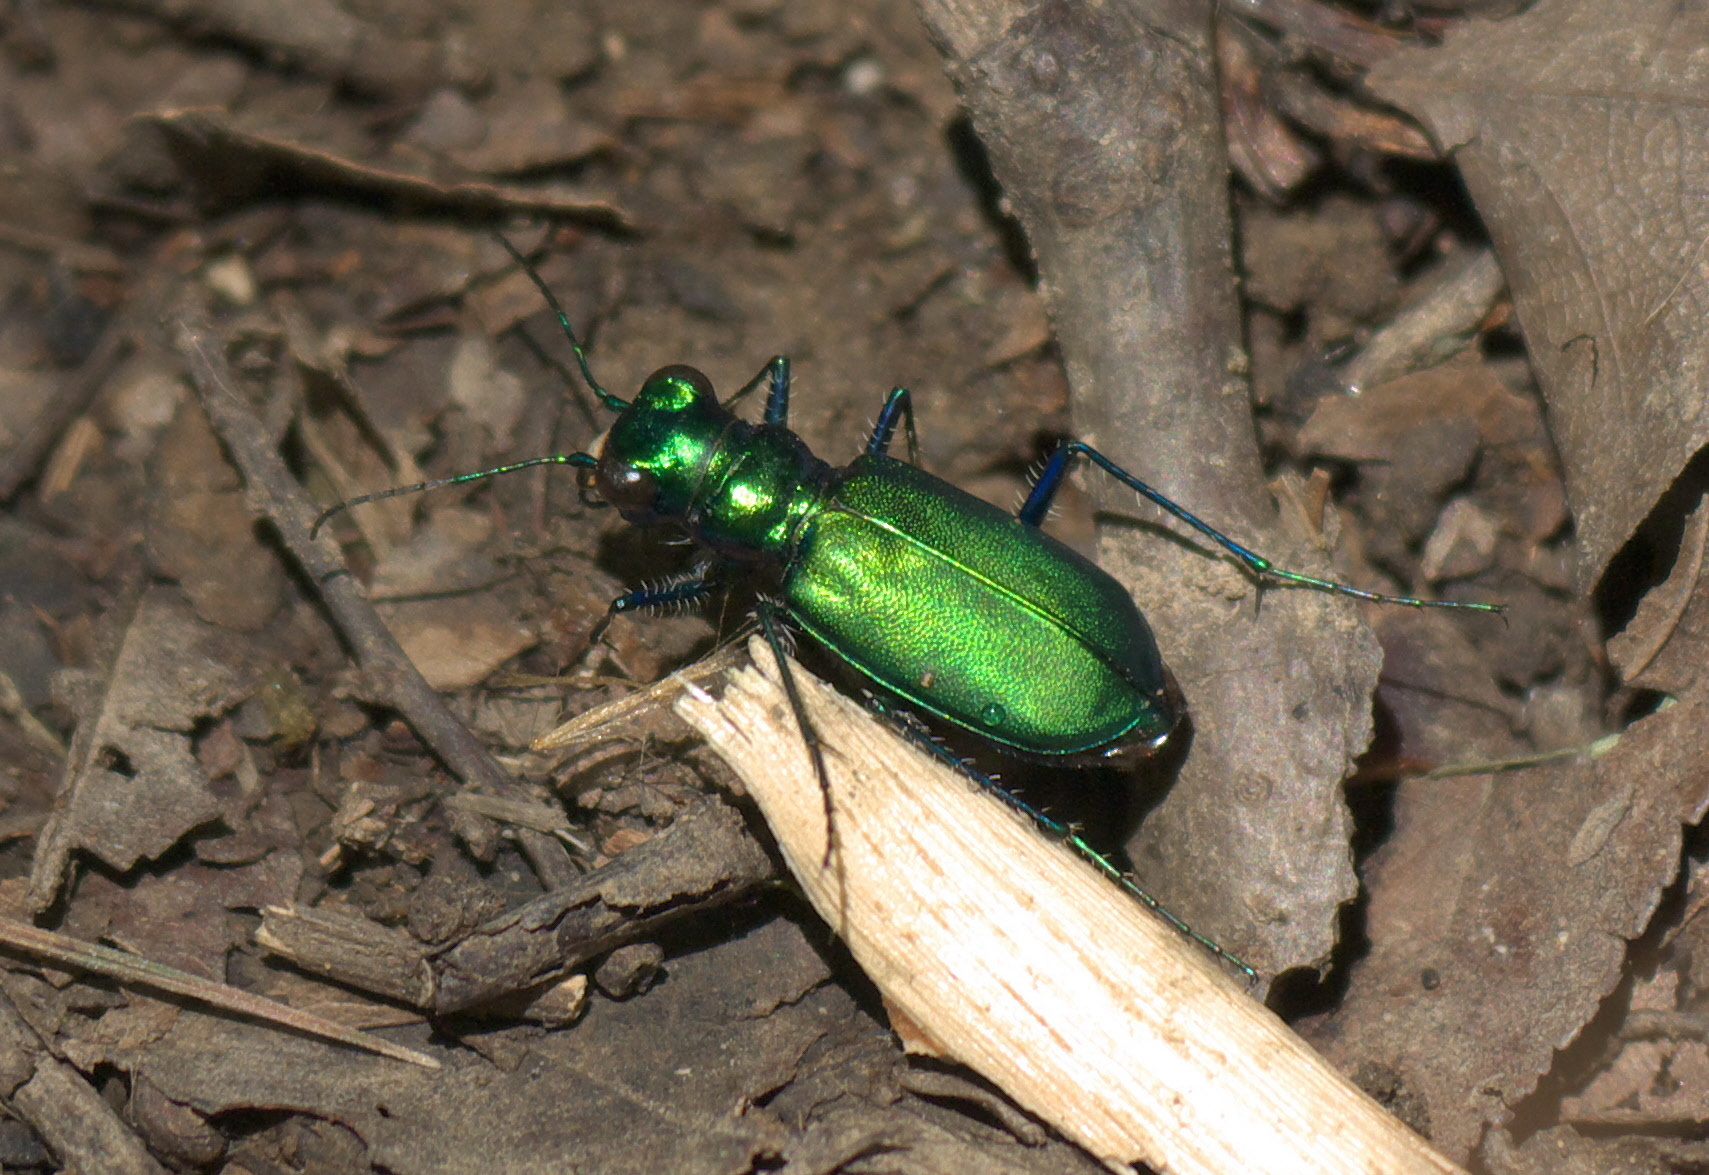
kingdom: Animalia
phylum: Arthropoda
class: Insecta
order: Coleoptera
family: Carabidae
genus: Cicindela
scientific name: Cicindela sexguttata
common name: Six-spotted tiger beetle
